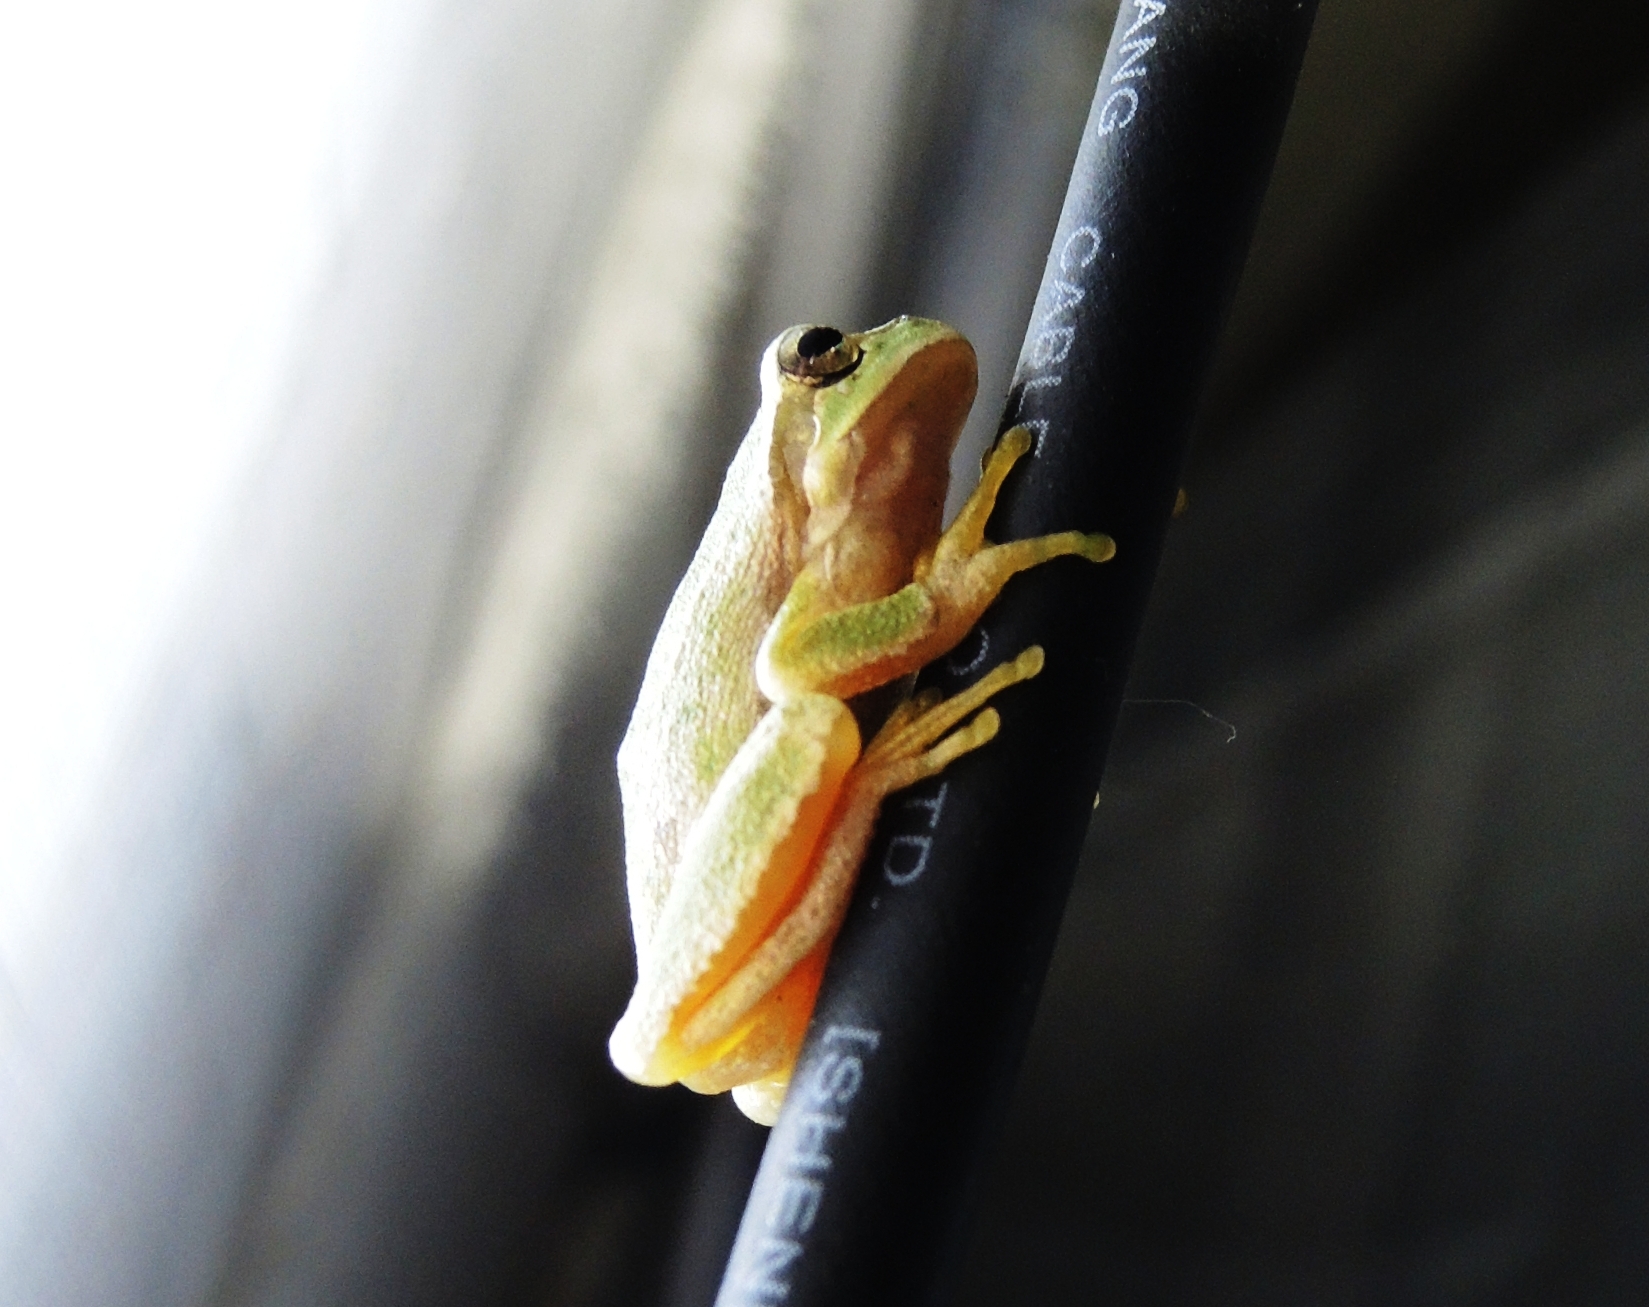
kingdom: Animalia
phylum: Chordata
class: Amphibia
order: Anura
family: Hylidae
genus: Hyla
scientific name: Hyla orientalis
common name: Caucasian treefrog
